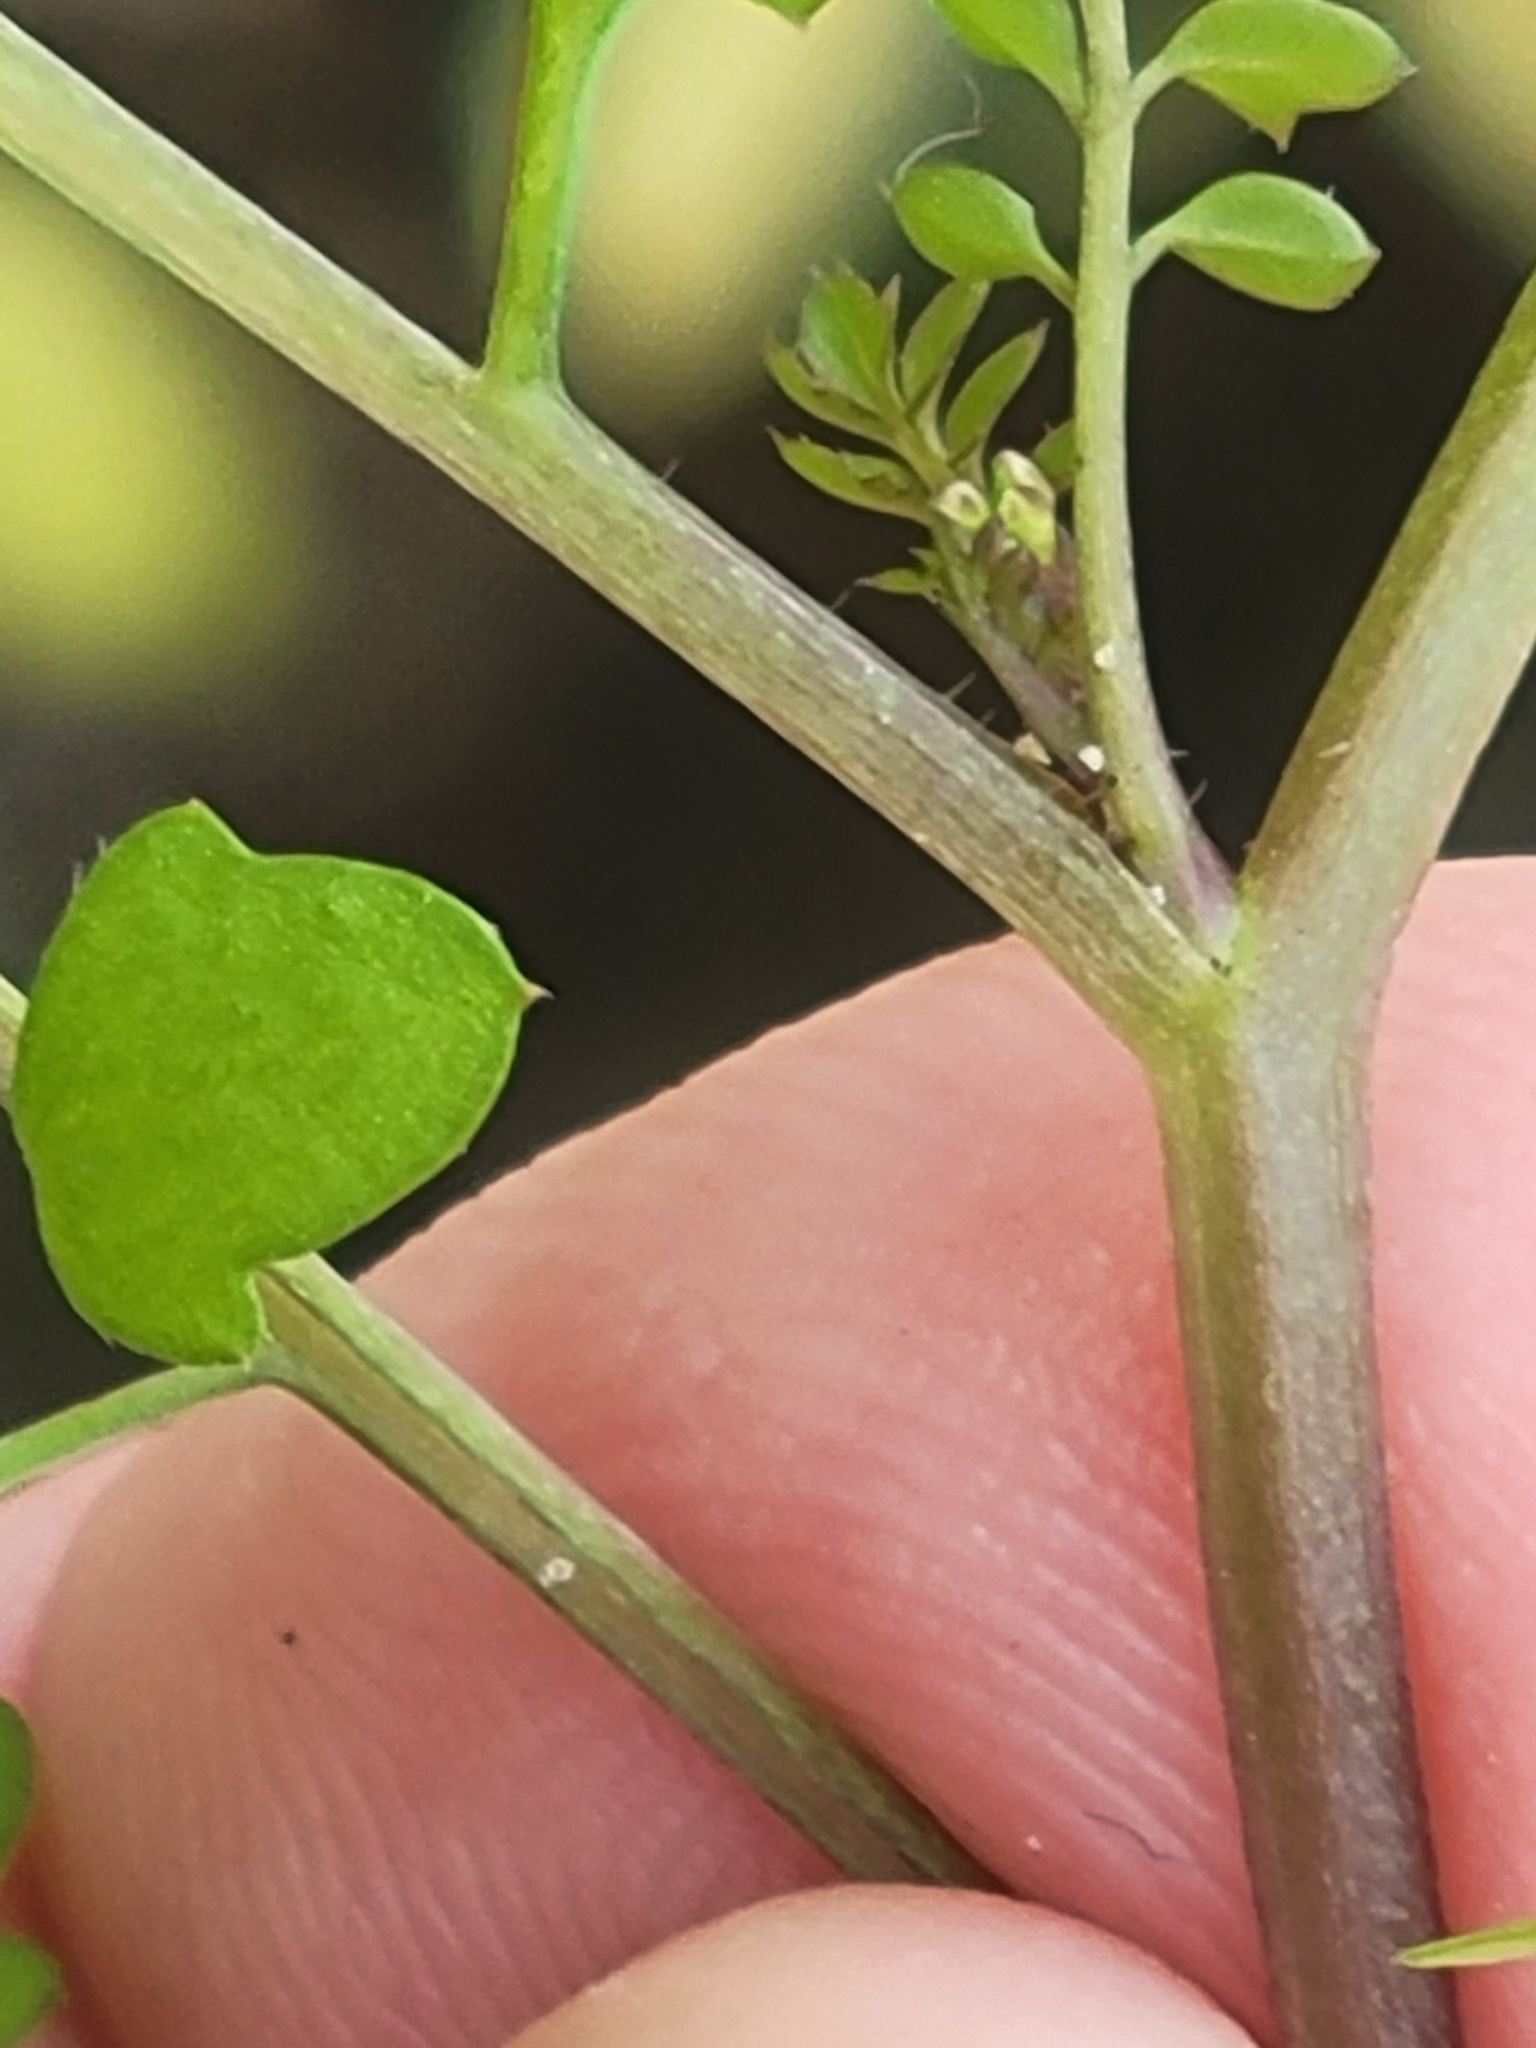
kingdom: Plantae
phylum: Tracheophyta
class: Magnoliopsida
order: Brassicales
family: Brassicaceae
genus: Cardamine
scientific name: Cardamine occulta
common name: Asian wavy bittercress
